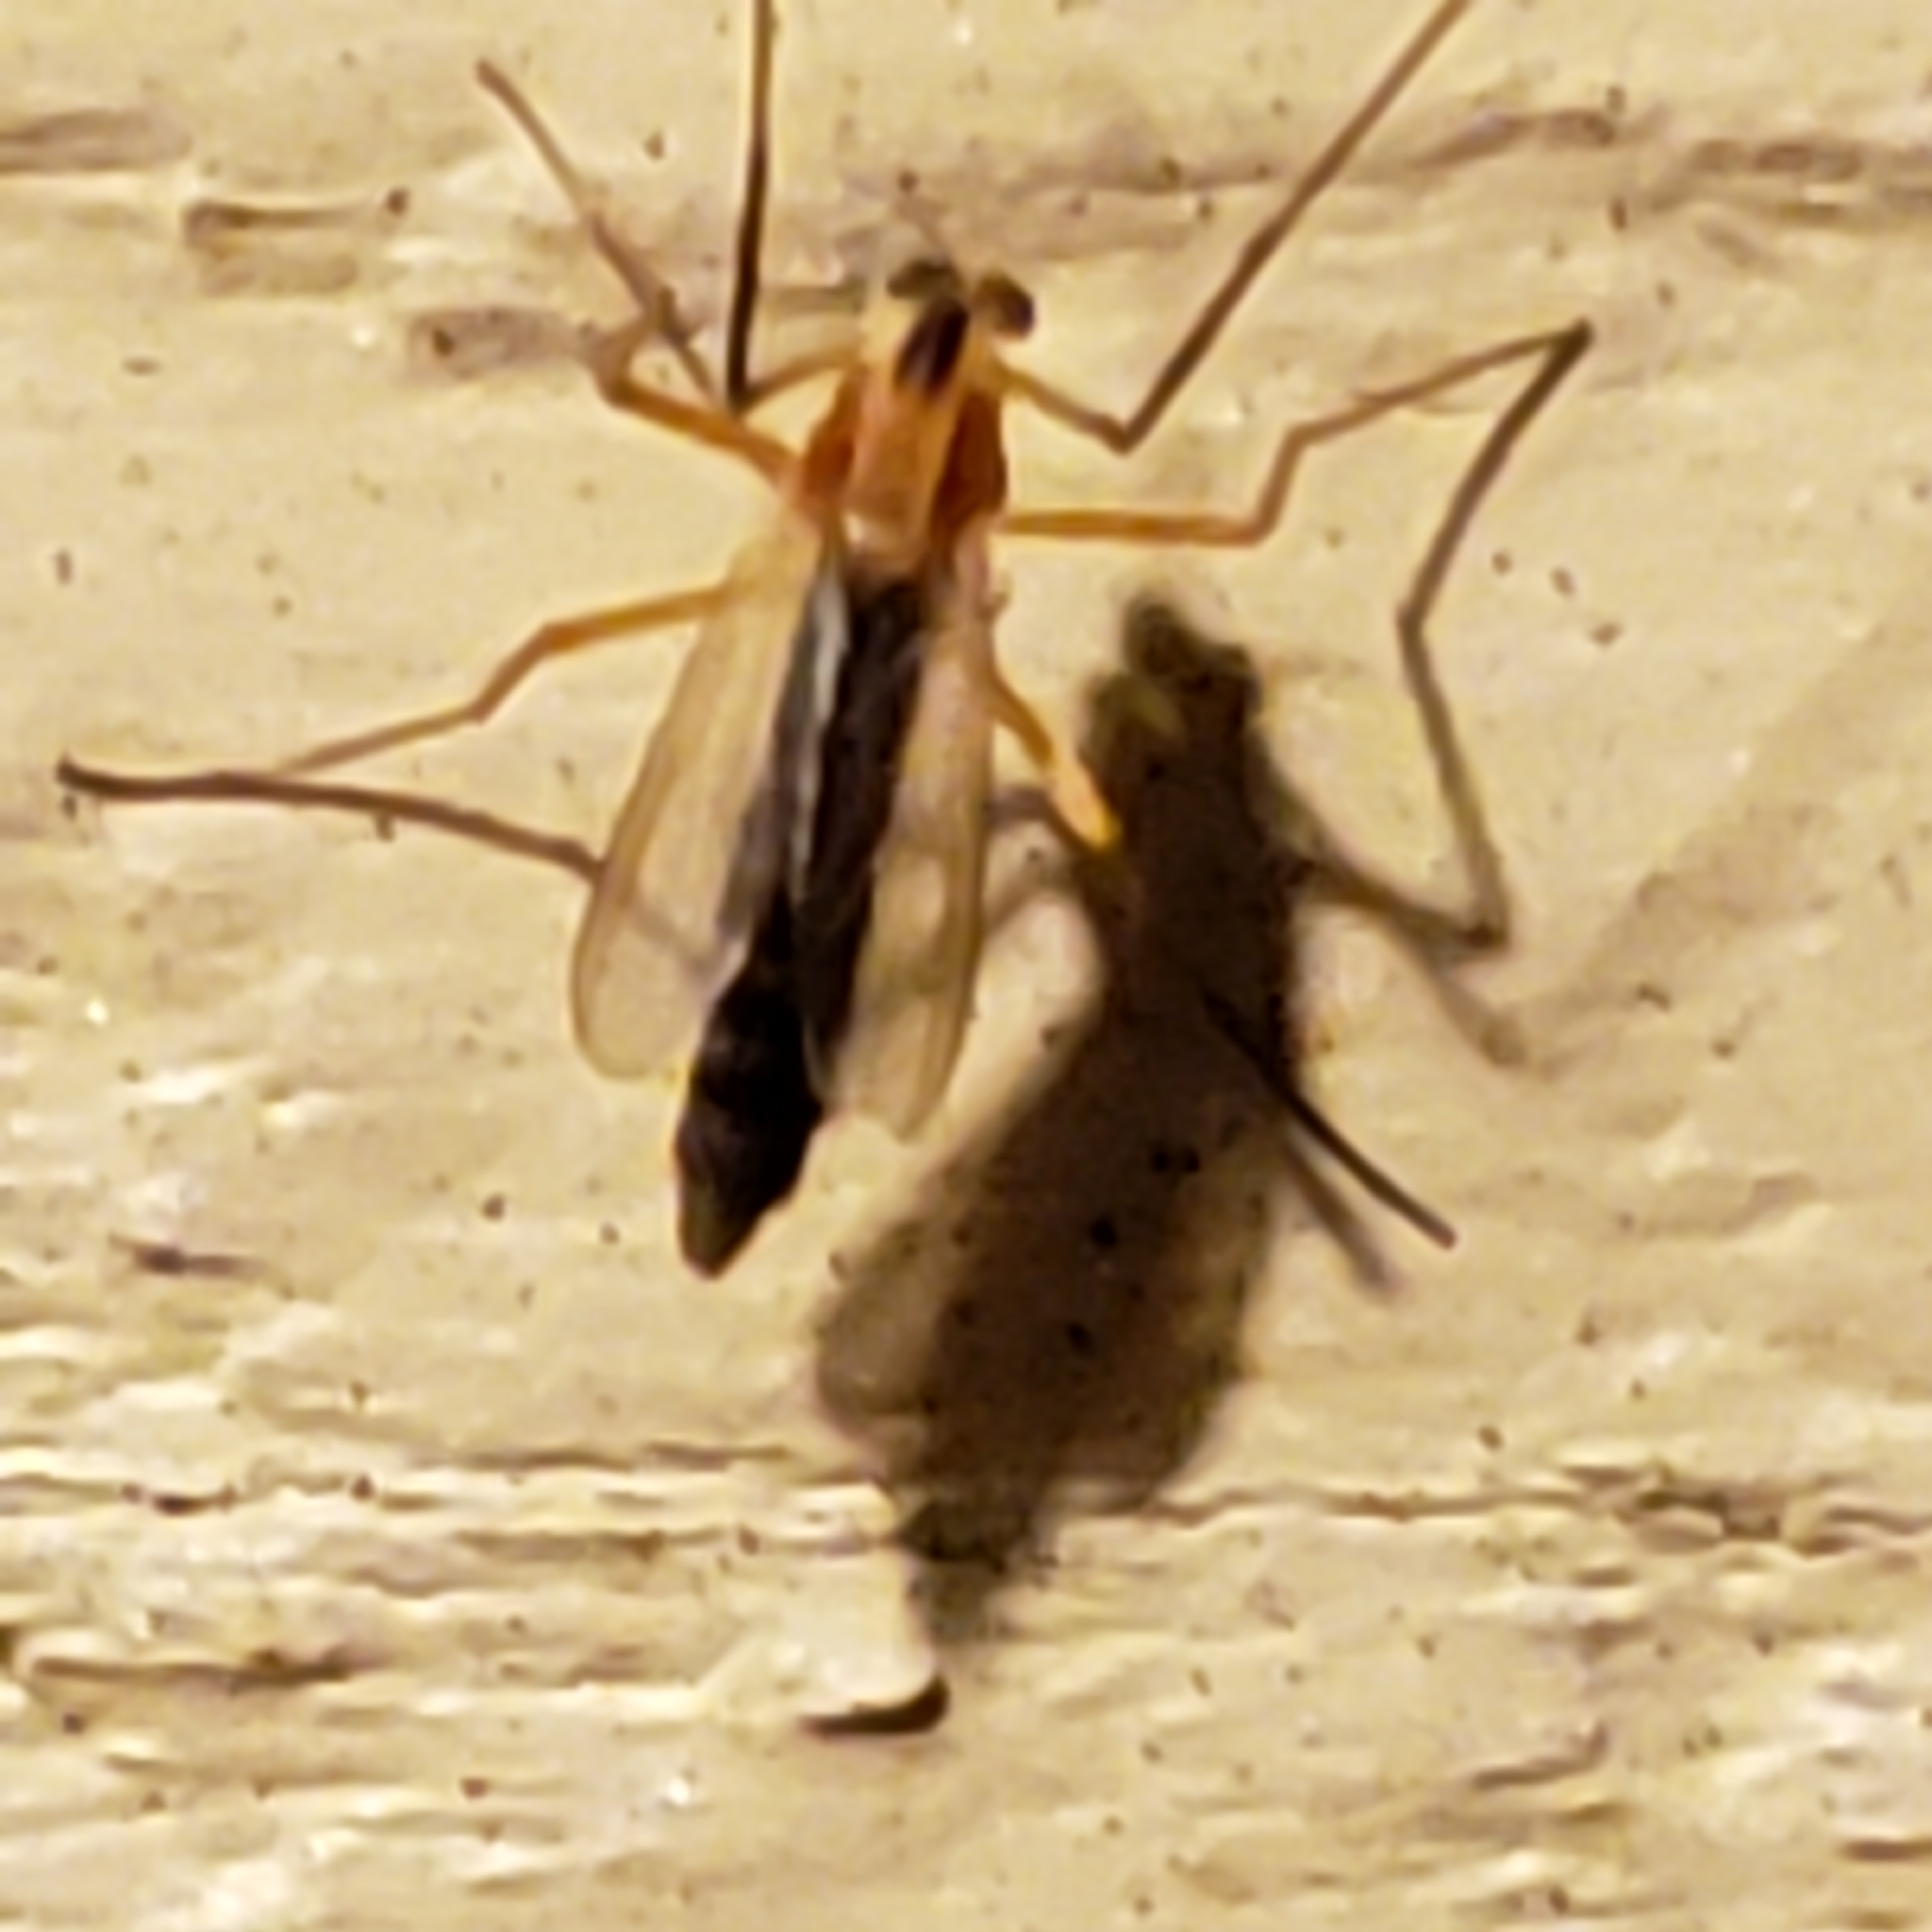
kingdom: Animalia
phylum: Arthropoda
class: Insecta
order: Diptera
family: Chironomidae
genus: Chironomus
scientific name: Chironomus ochreatus
